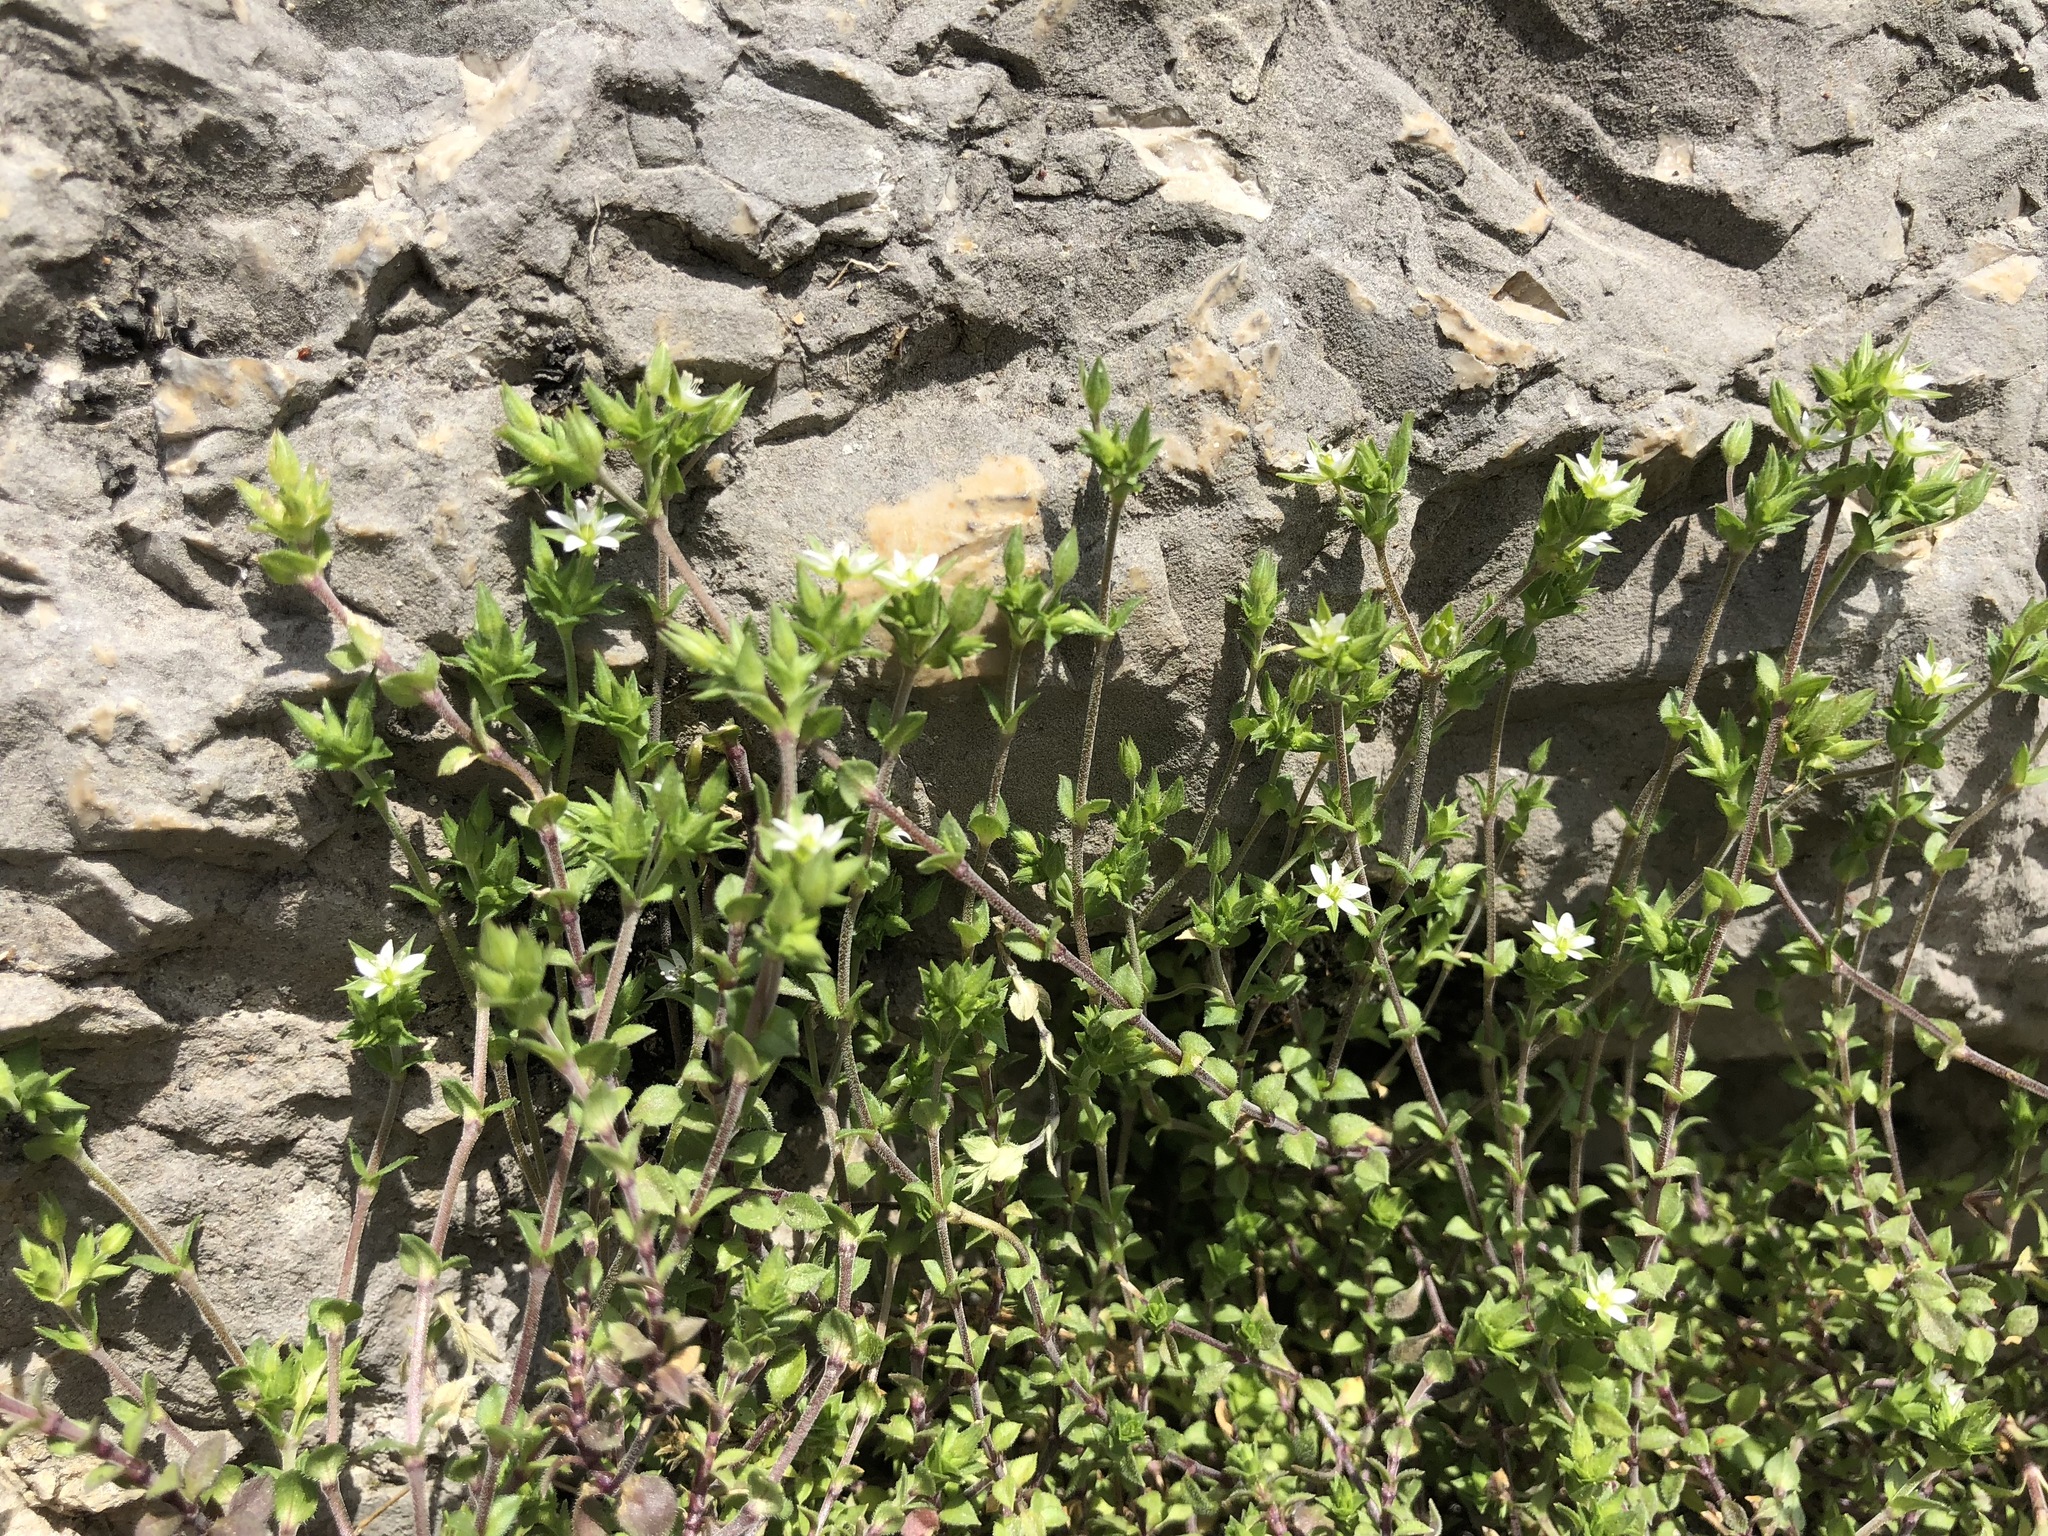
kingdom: Plantae
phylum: Tracheophyta
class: Magnoliopsida
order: Caryophyllales
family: Caryophyllaceae
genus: Arenaria
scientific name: Arenaria serpyllifolia
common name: Thyme-leaved sandwort
